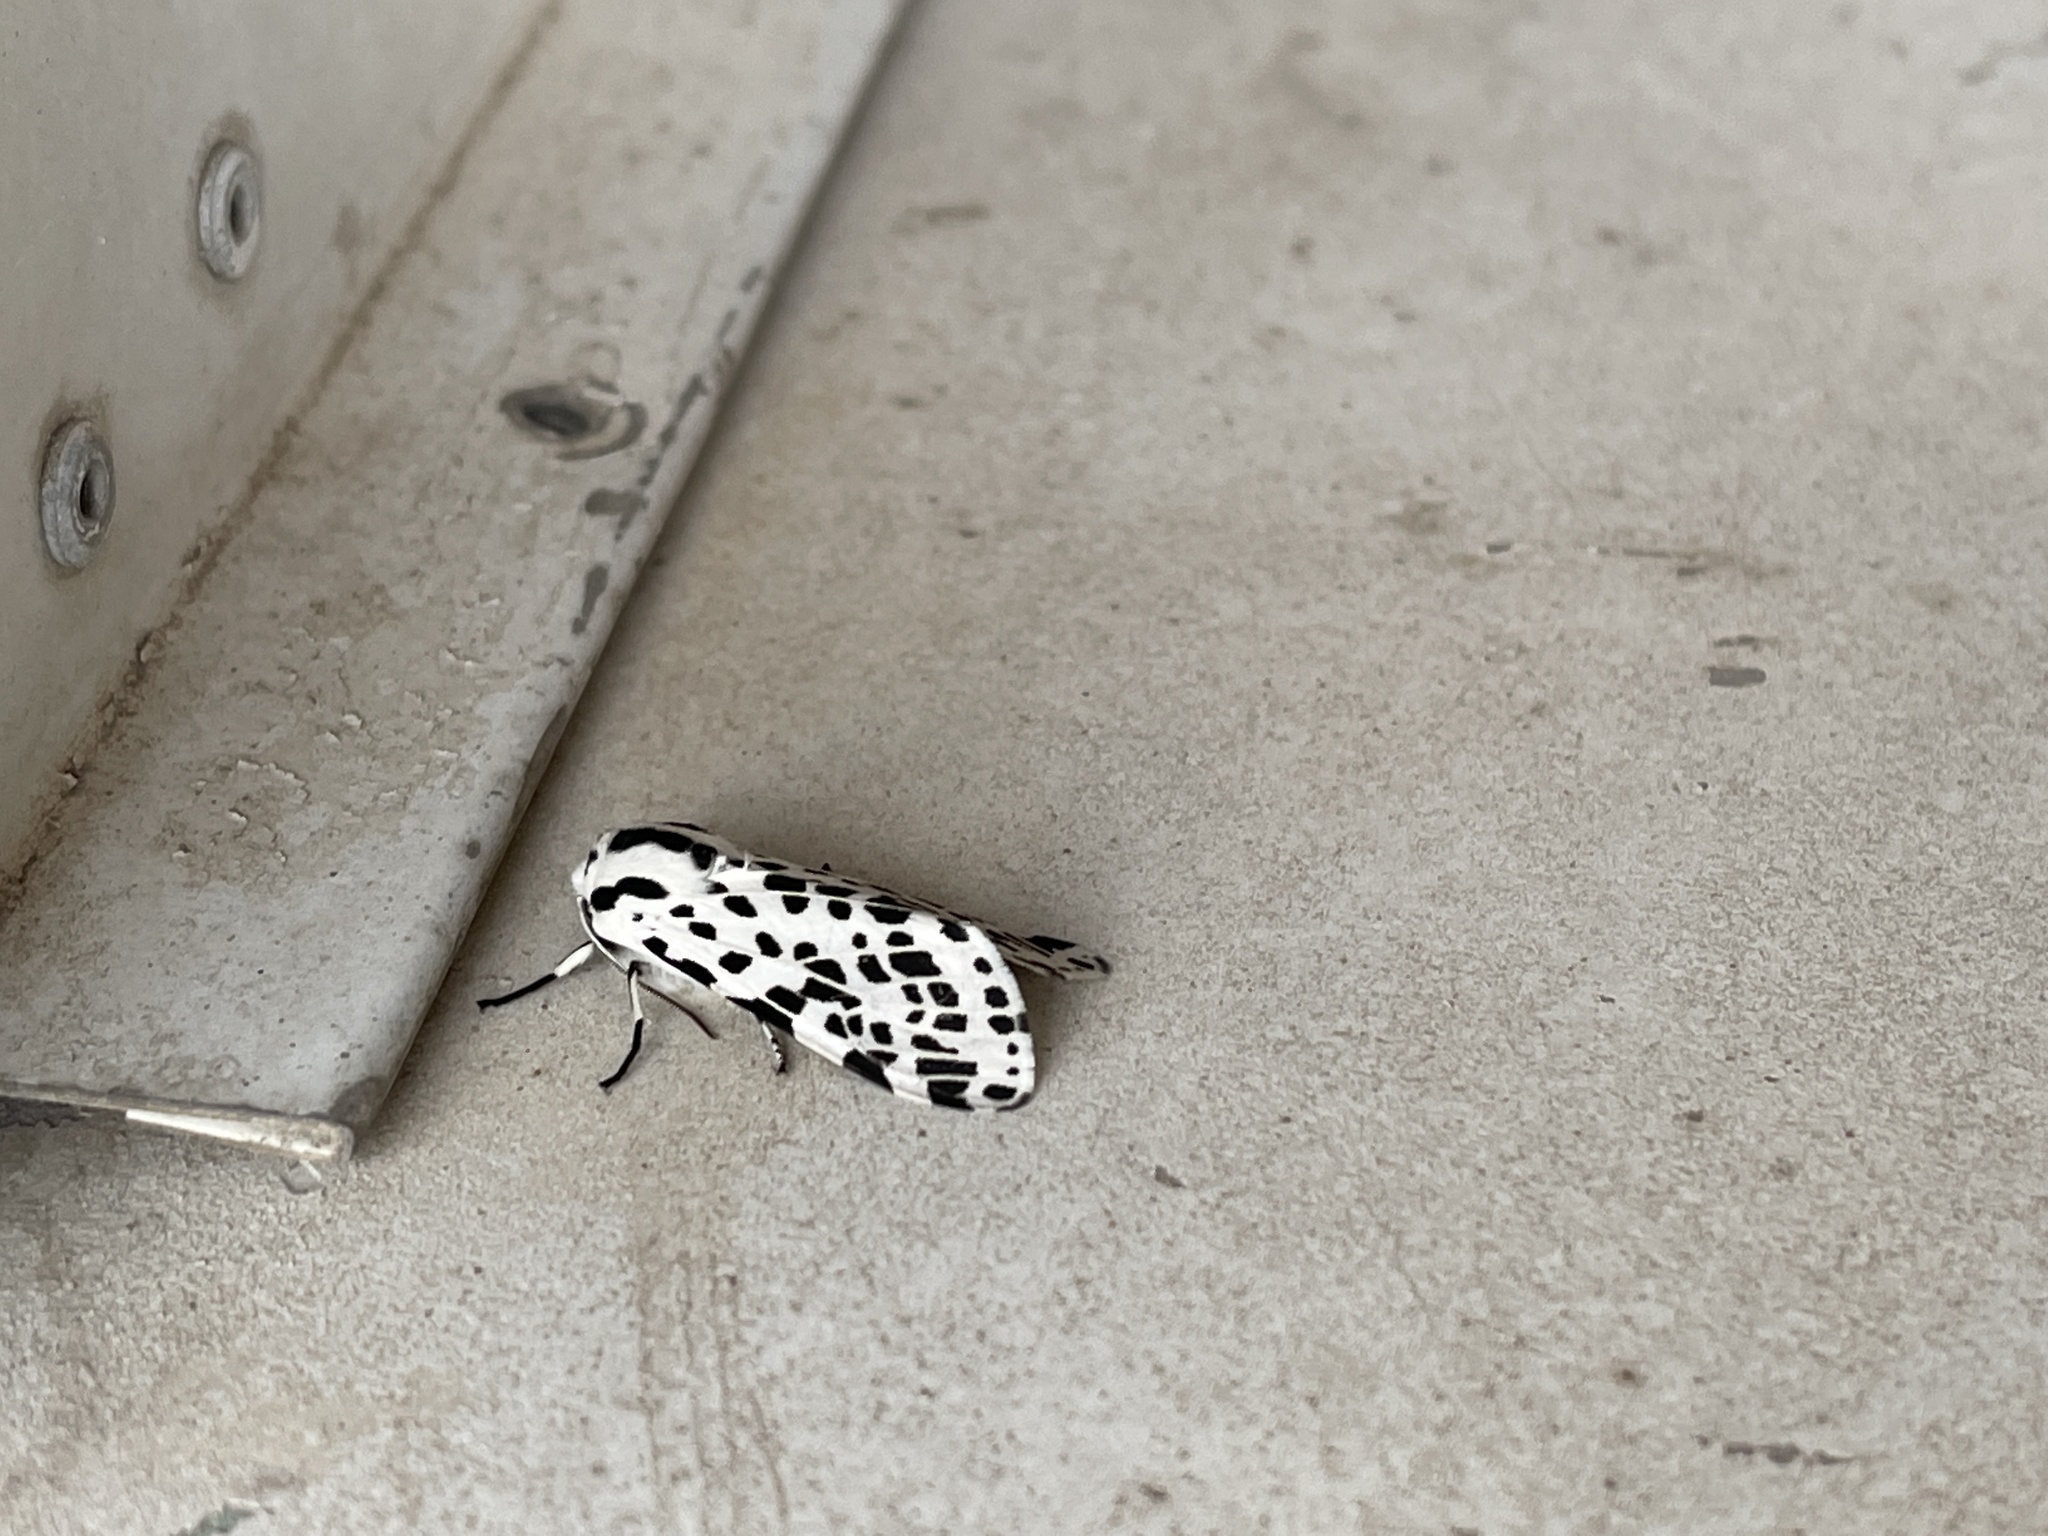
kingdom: Animalia
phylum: Arthropoda
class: Insecta
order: Lepidoptera
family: Erebidae
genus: Hypercompe
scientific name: Hypercompe permaculata
